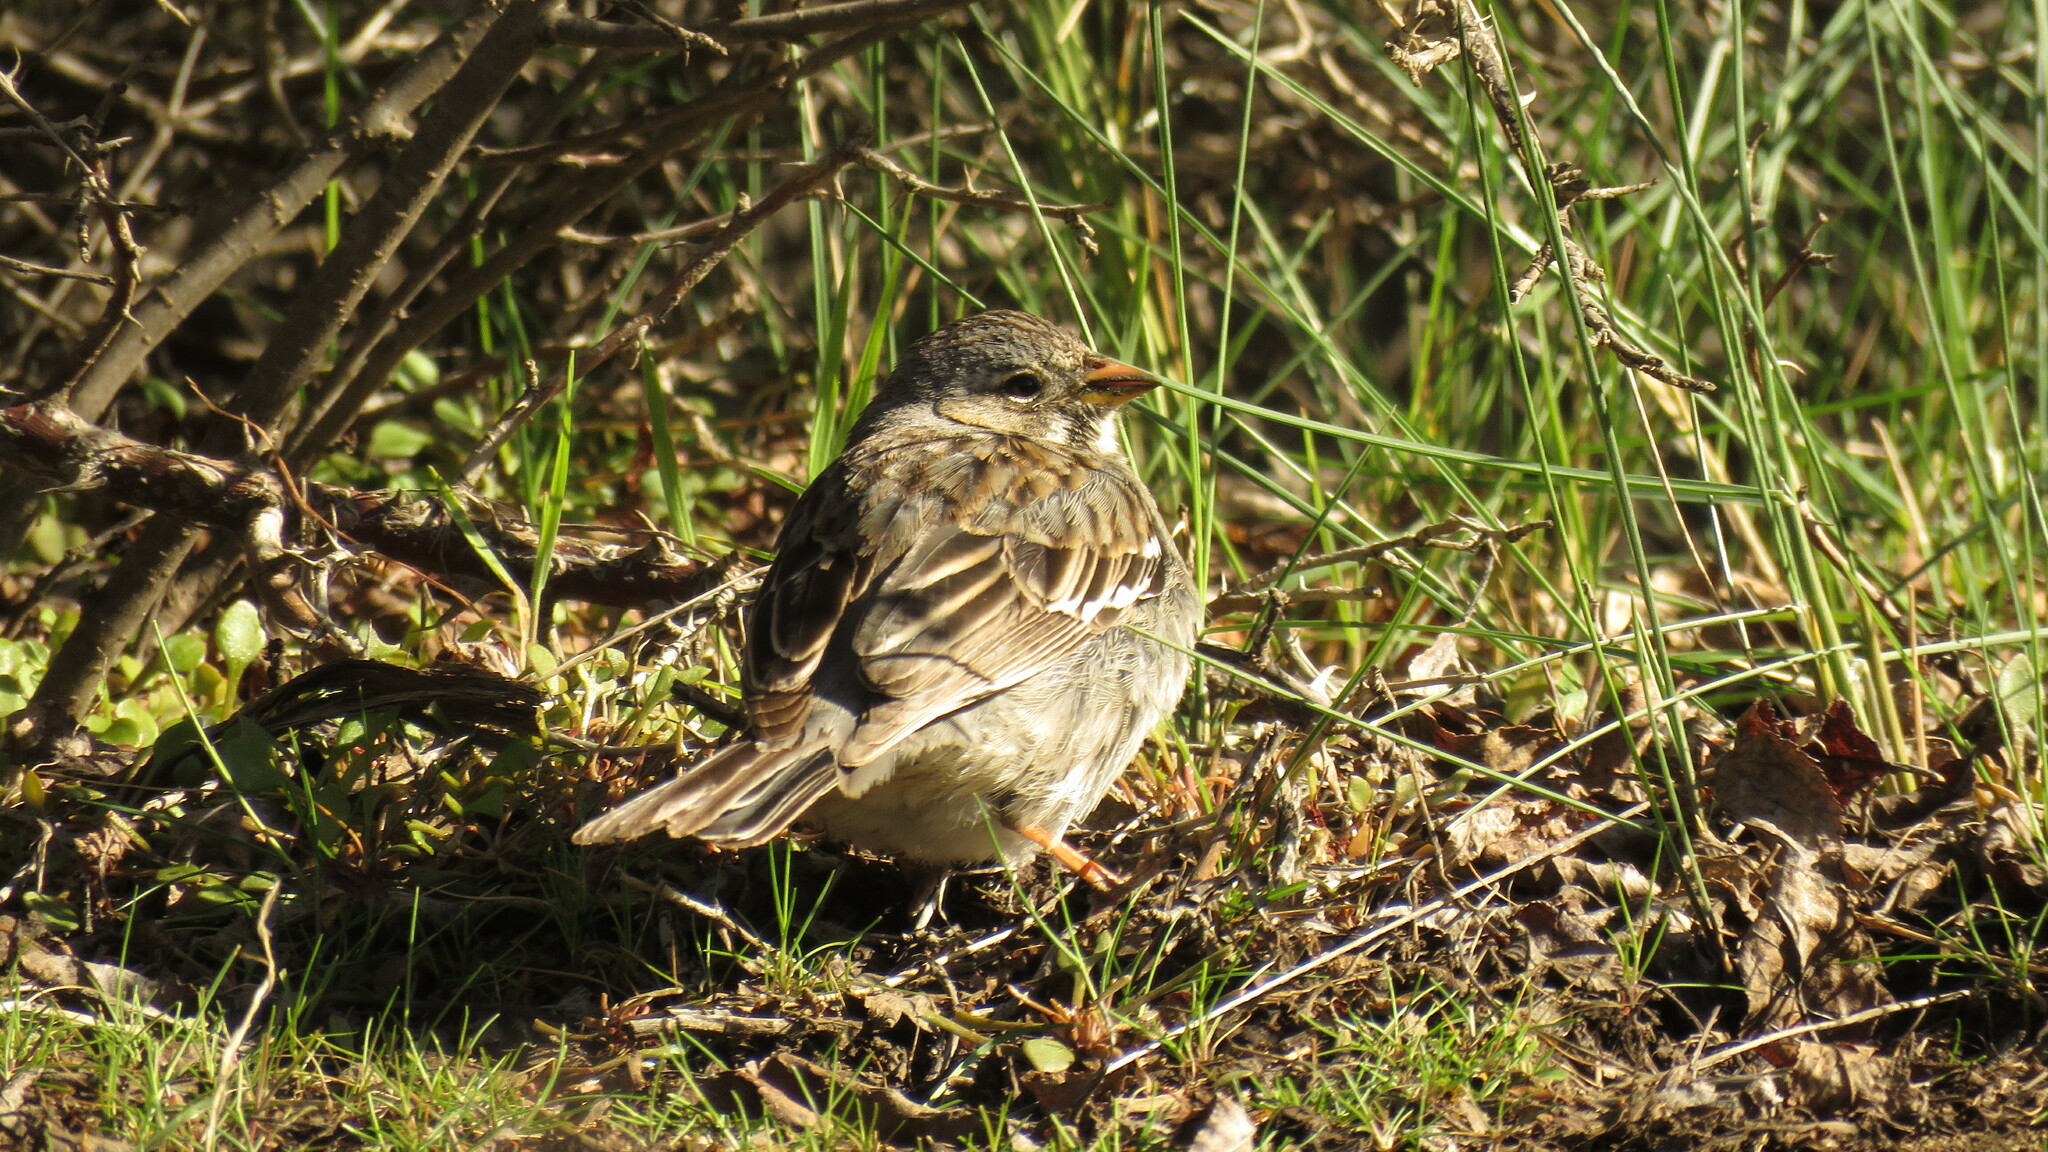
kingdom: Animalia
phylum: Chordata
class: Aves
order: Passeriformes
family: Thraupidae
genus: Rhopospina
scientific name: Rhopospina fruticeti
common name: Mourning sierra finch
